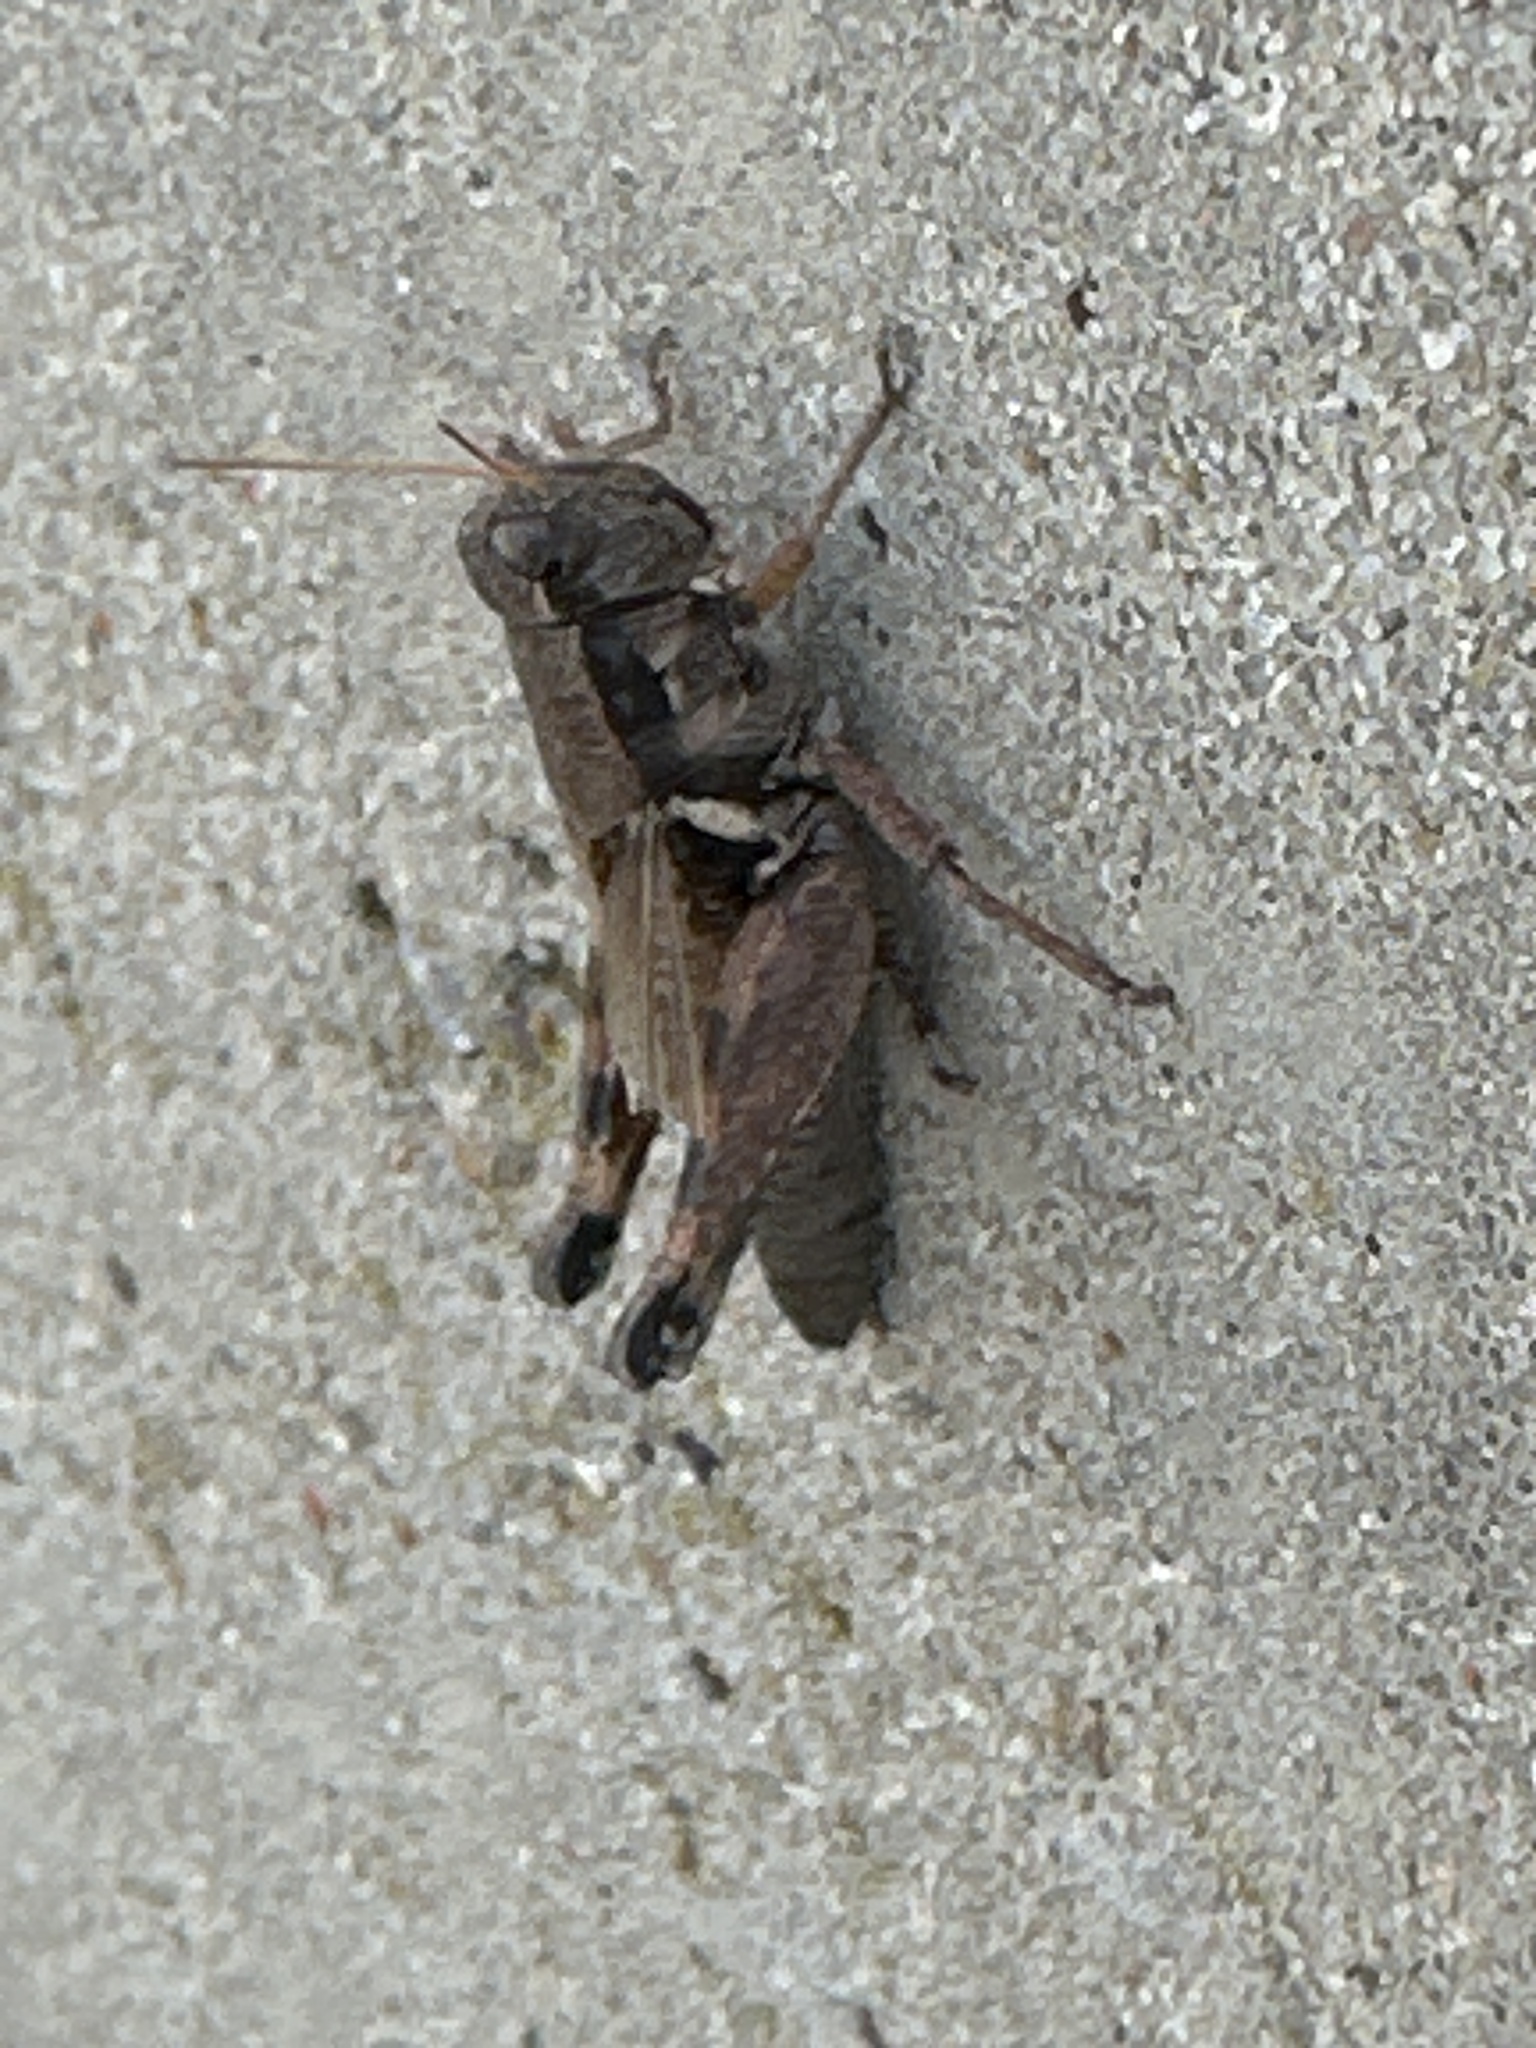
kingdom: Animalia
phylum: Arthropoda
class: Insecta
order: Orthoptera
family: Acrididae
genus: Melanoplus
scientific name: Melanoplus glaucipes
